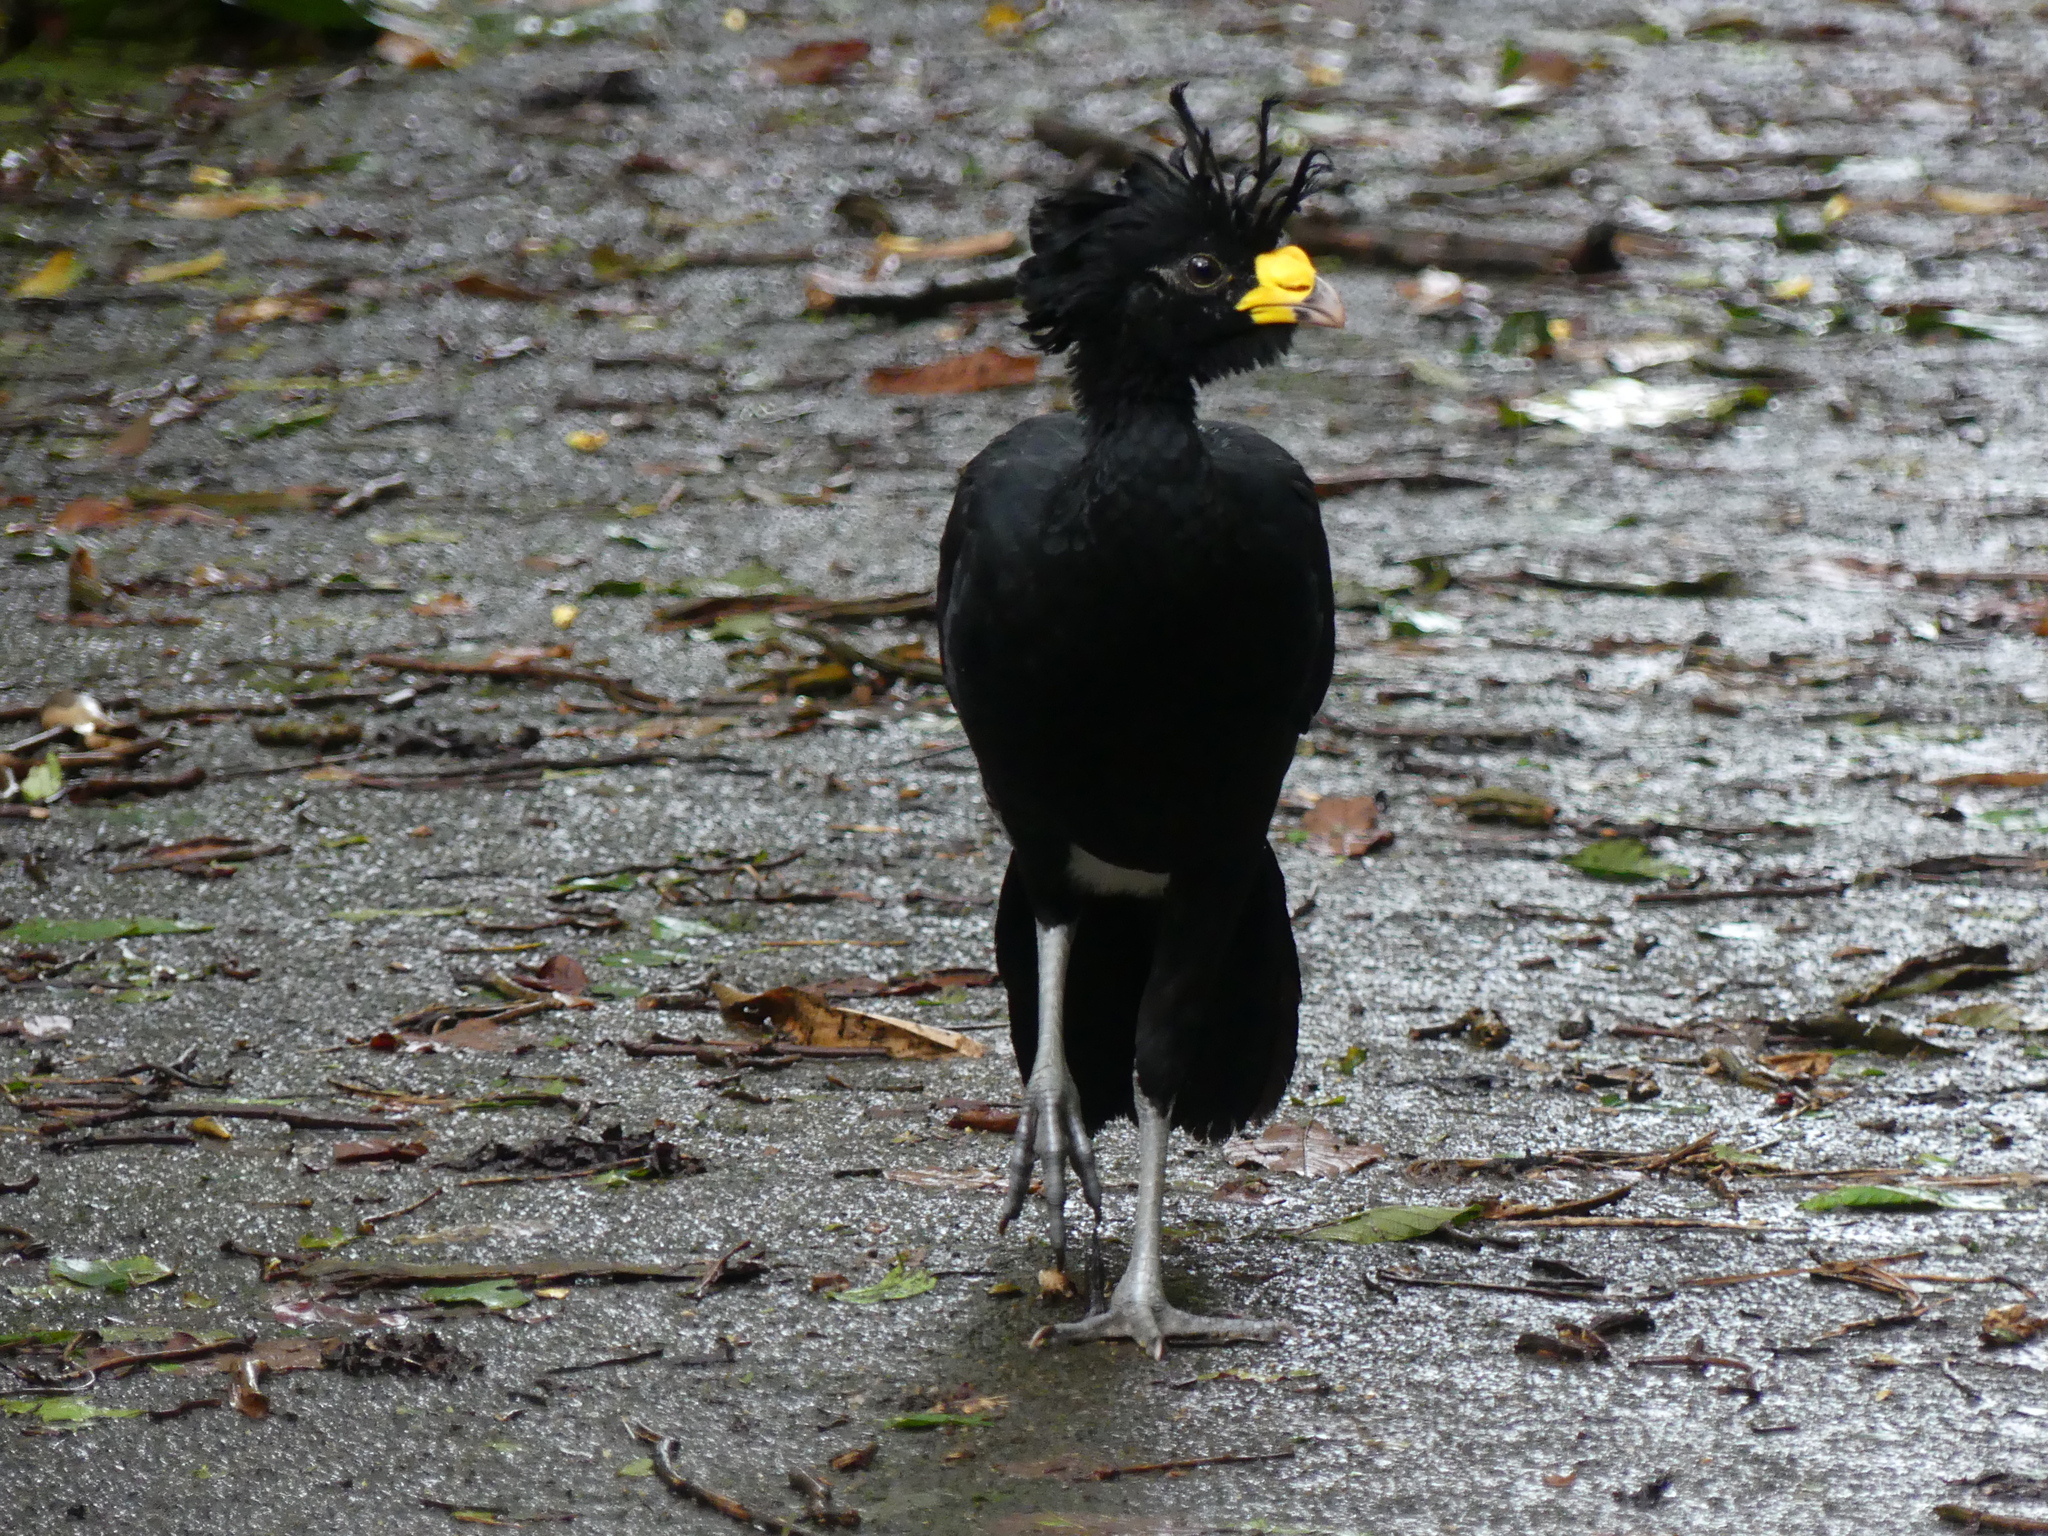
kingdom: Animalia
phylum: Chordata
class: Aves
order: Galliformes
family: Cracidae
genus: Crax
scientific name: Crax rubra
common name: Great curassow
